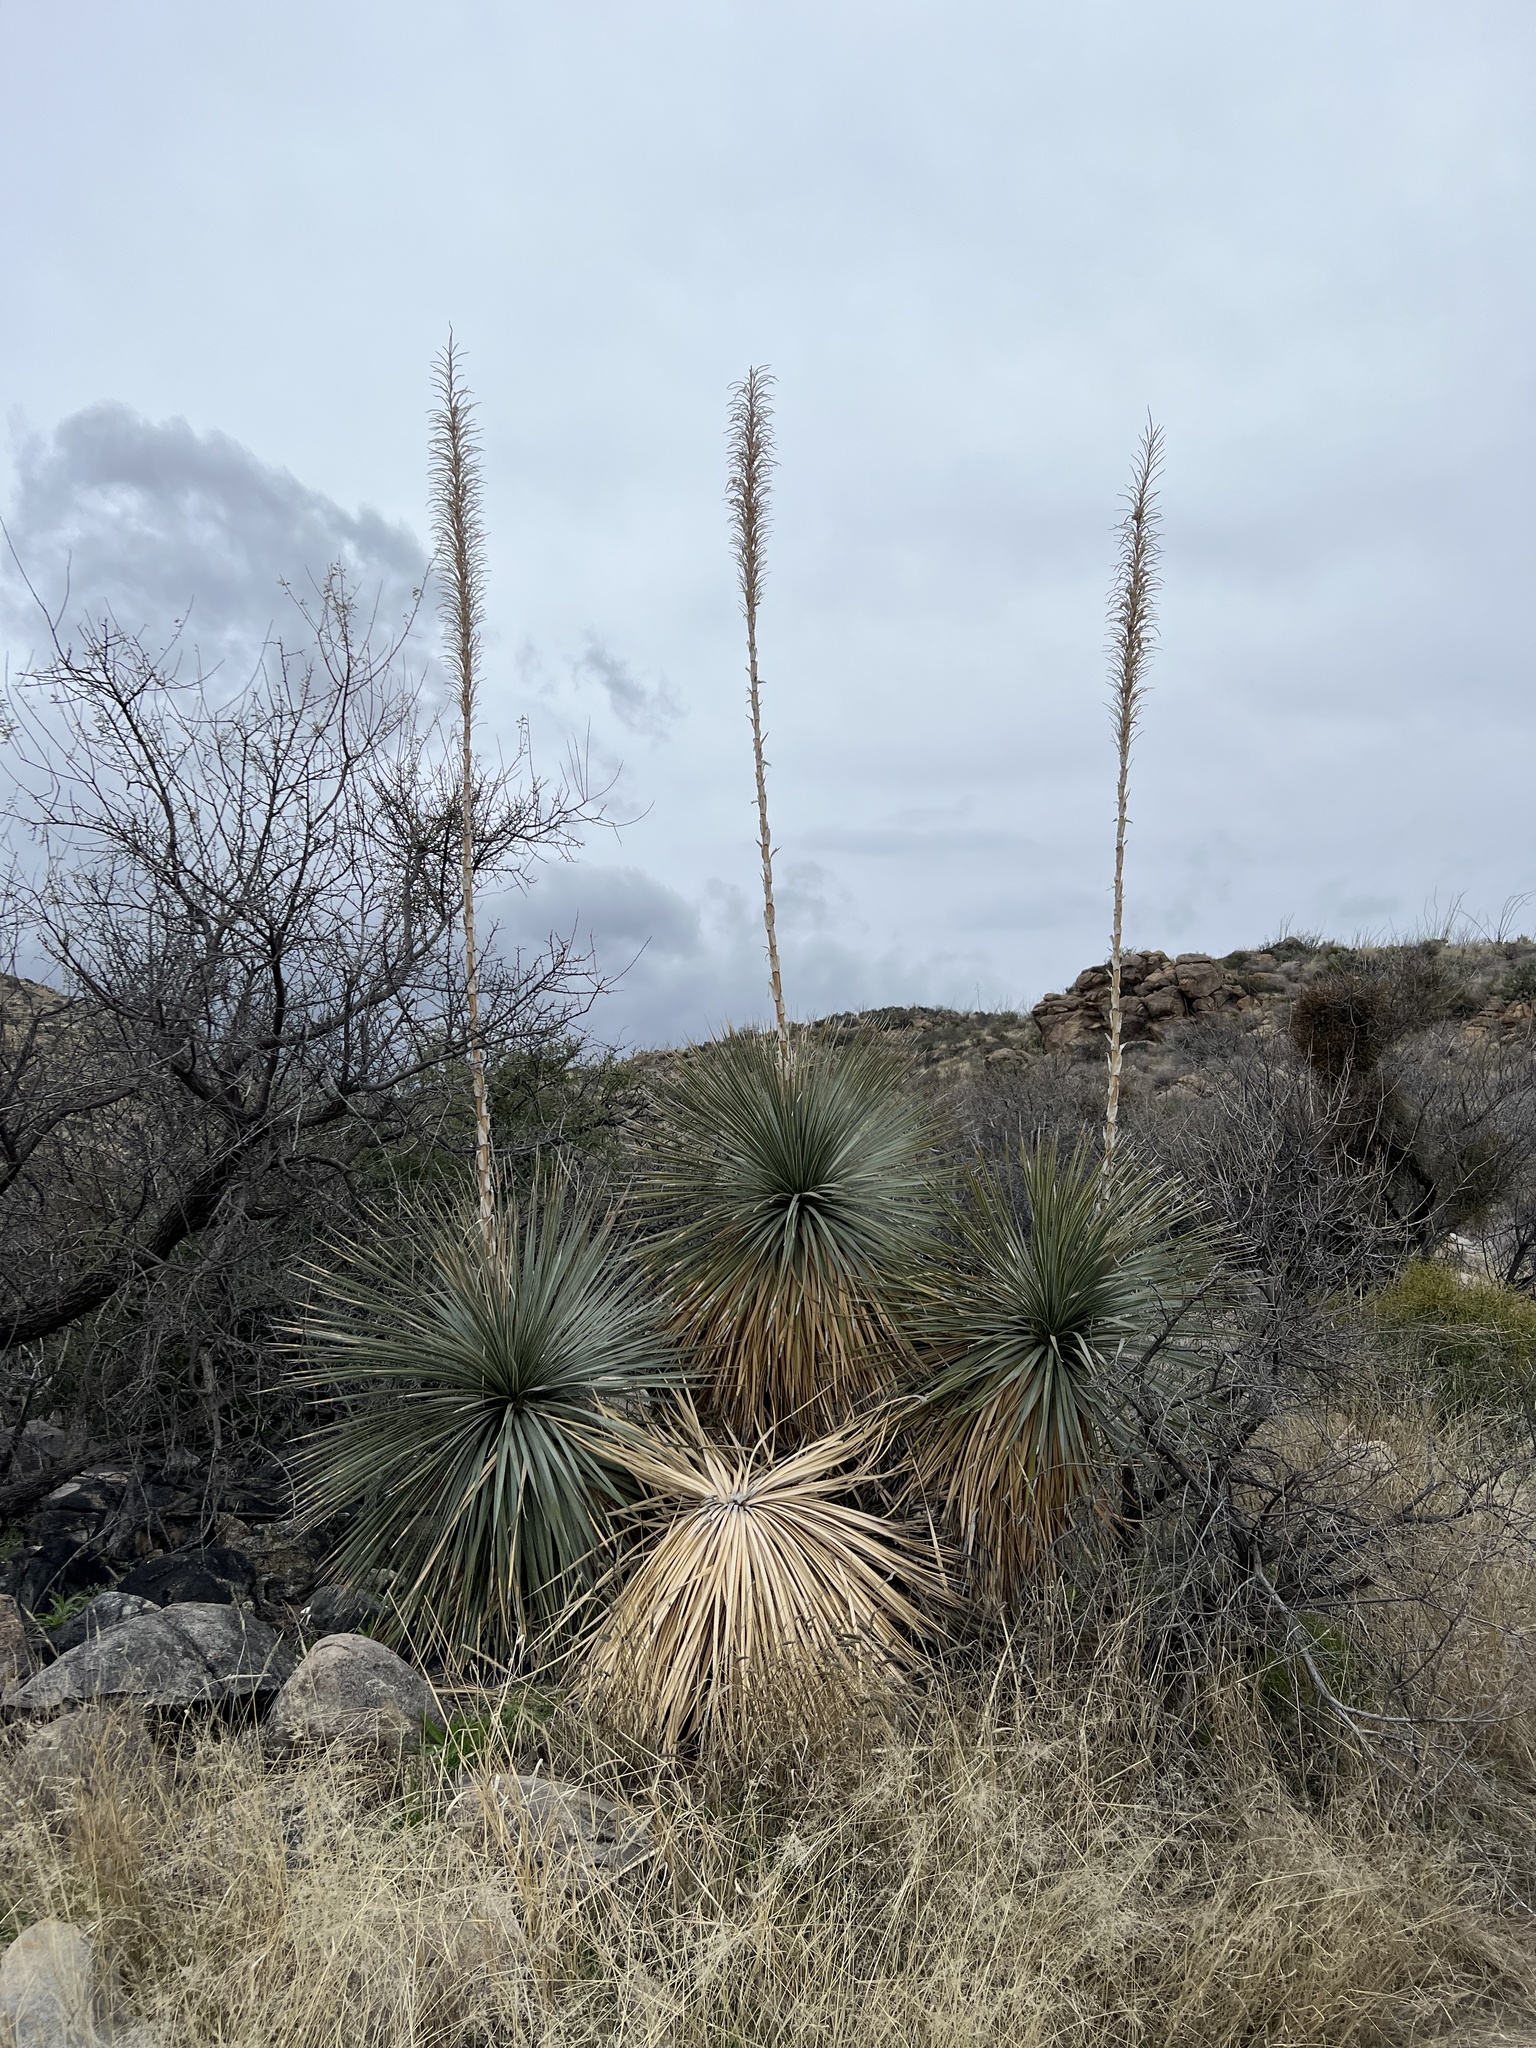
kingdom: Plantae
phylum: Tracheophyta
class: Liliopsida
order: Asparagales
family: Asparagaceae
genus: Dasylirion
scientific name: Dasylirion wheeleri
